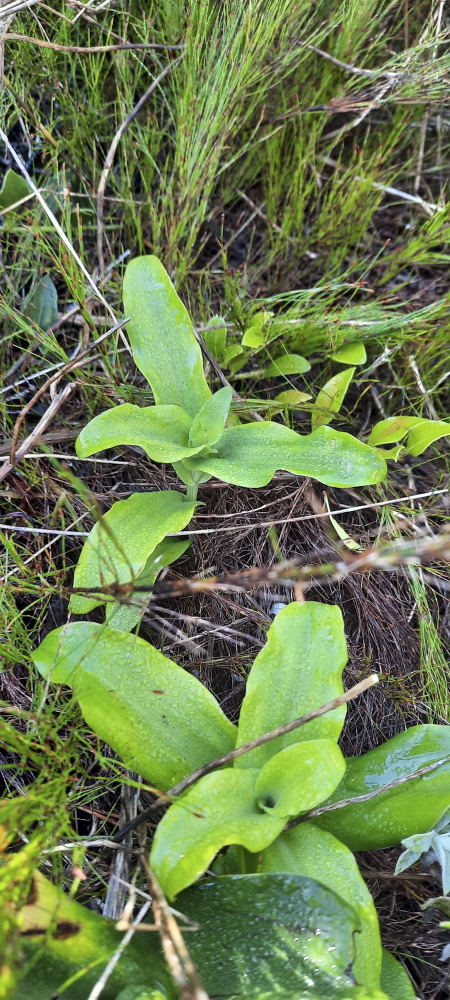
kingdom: Plantae
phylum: Tracheophyta
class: Liliopsida
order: Asparagales
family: Orchidaceae
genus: Bonatea
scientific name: Bonatea speciosa
